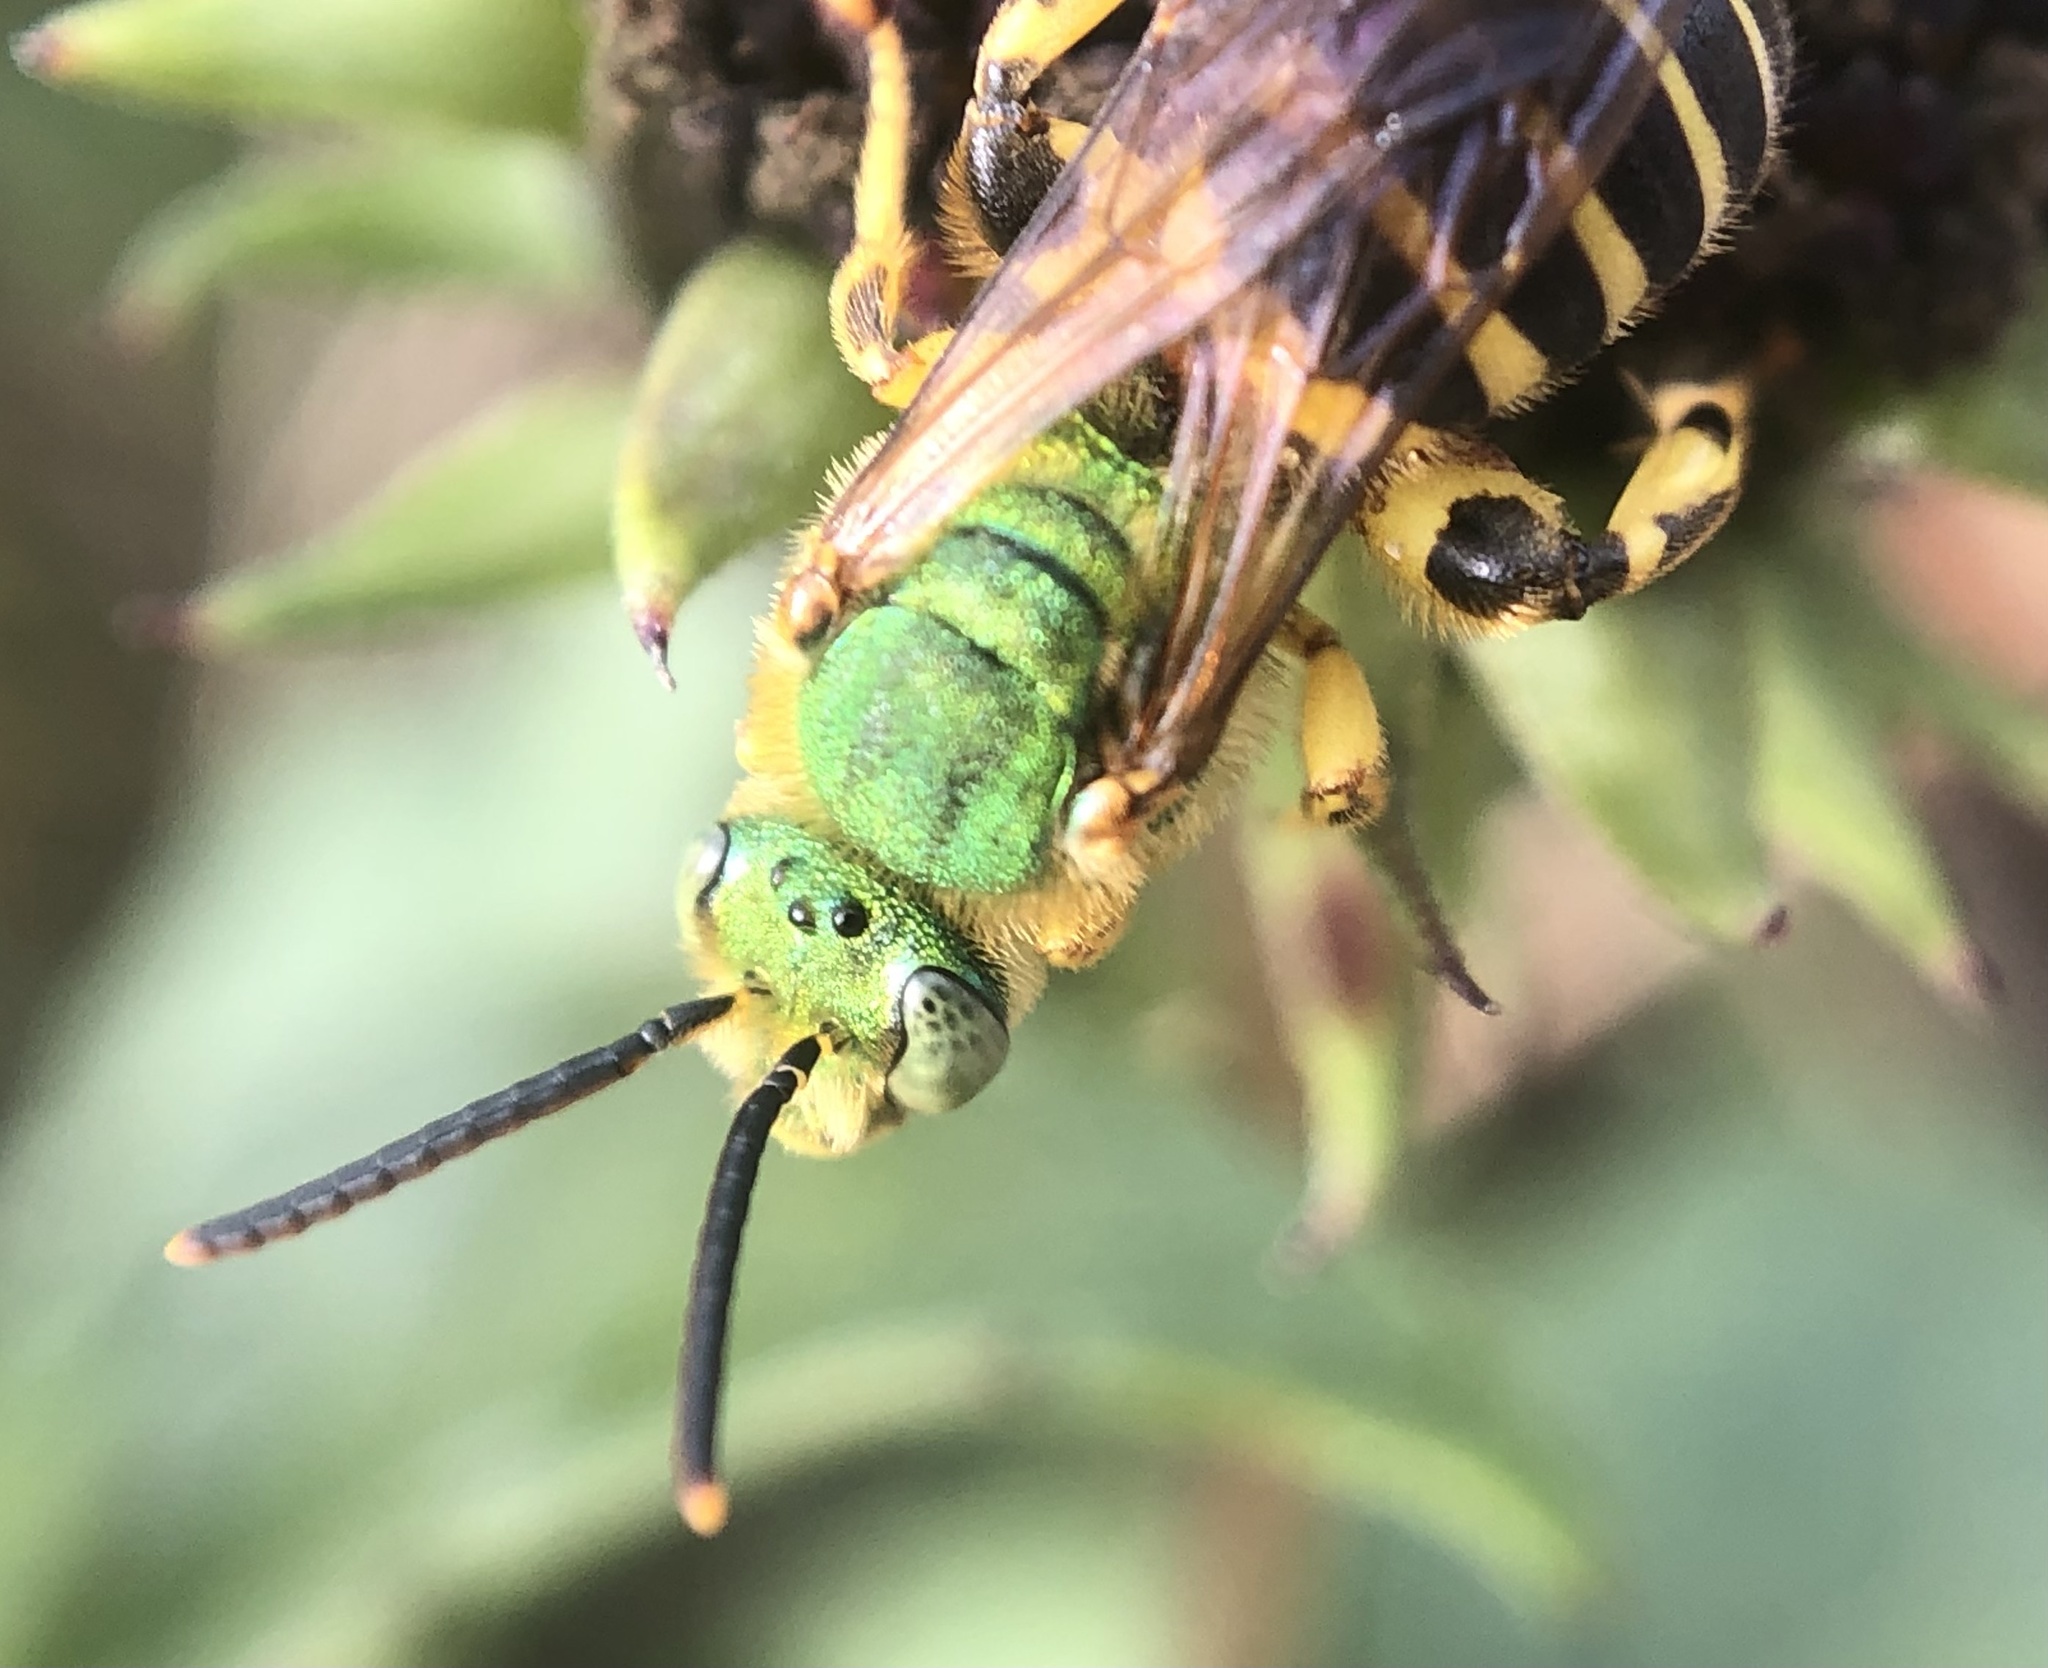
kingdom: Animalia
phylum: Arthropoda
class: Insecta
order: Hymenoptera
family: Halictidae
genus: Agapostemon
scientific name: Agapostemon splendens
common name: Brown-winged striped sweat bee
